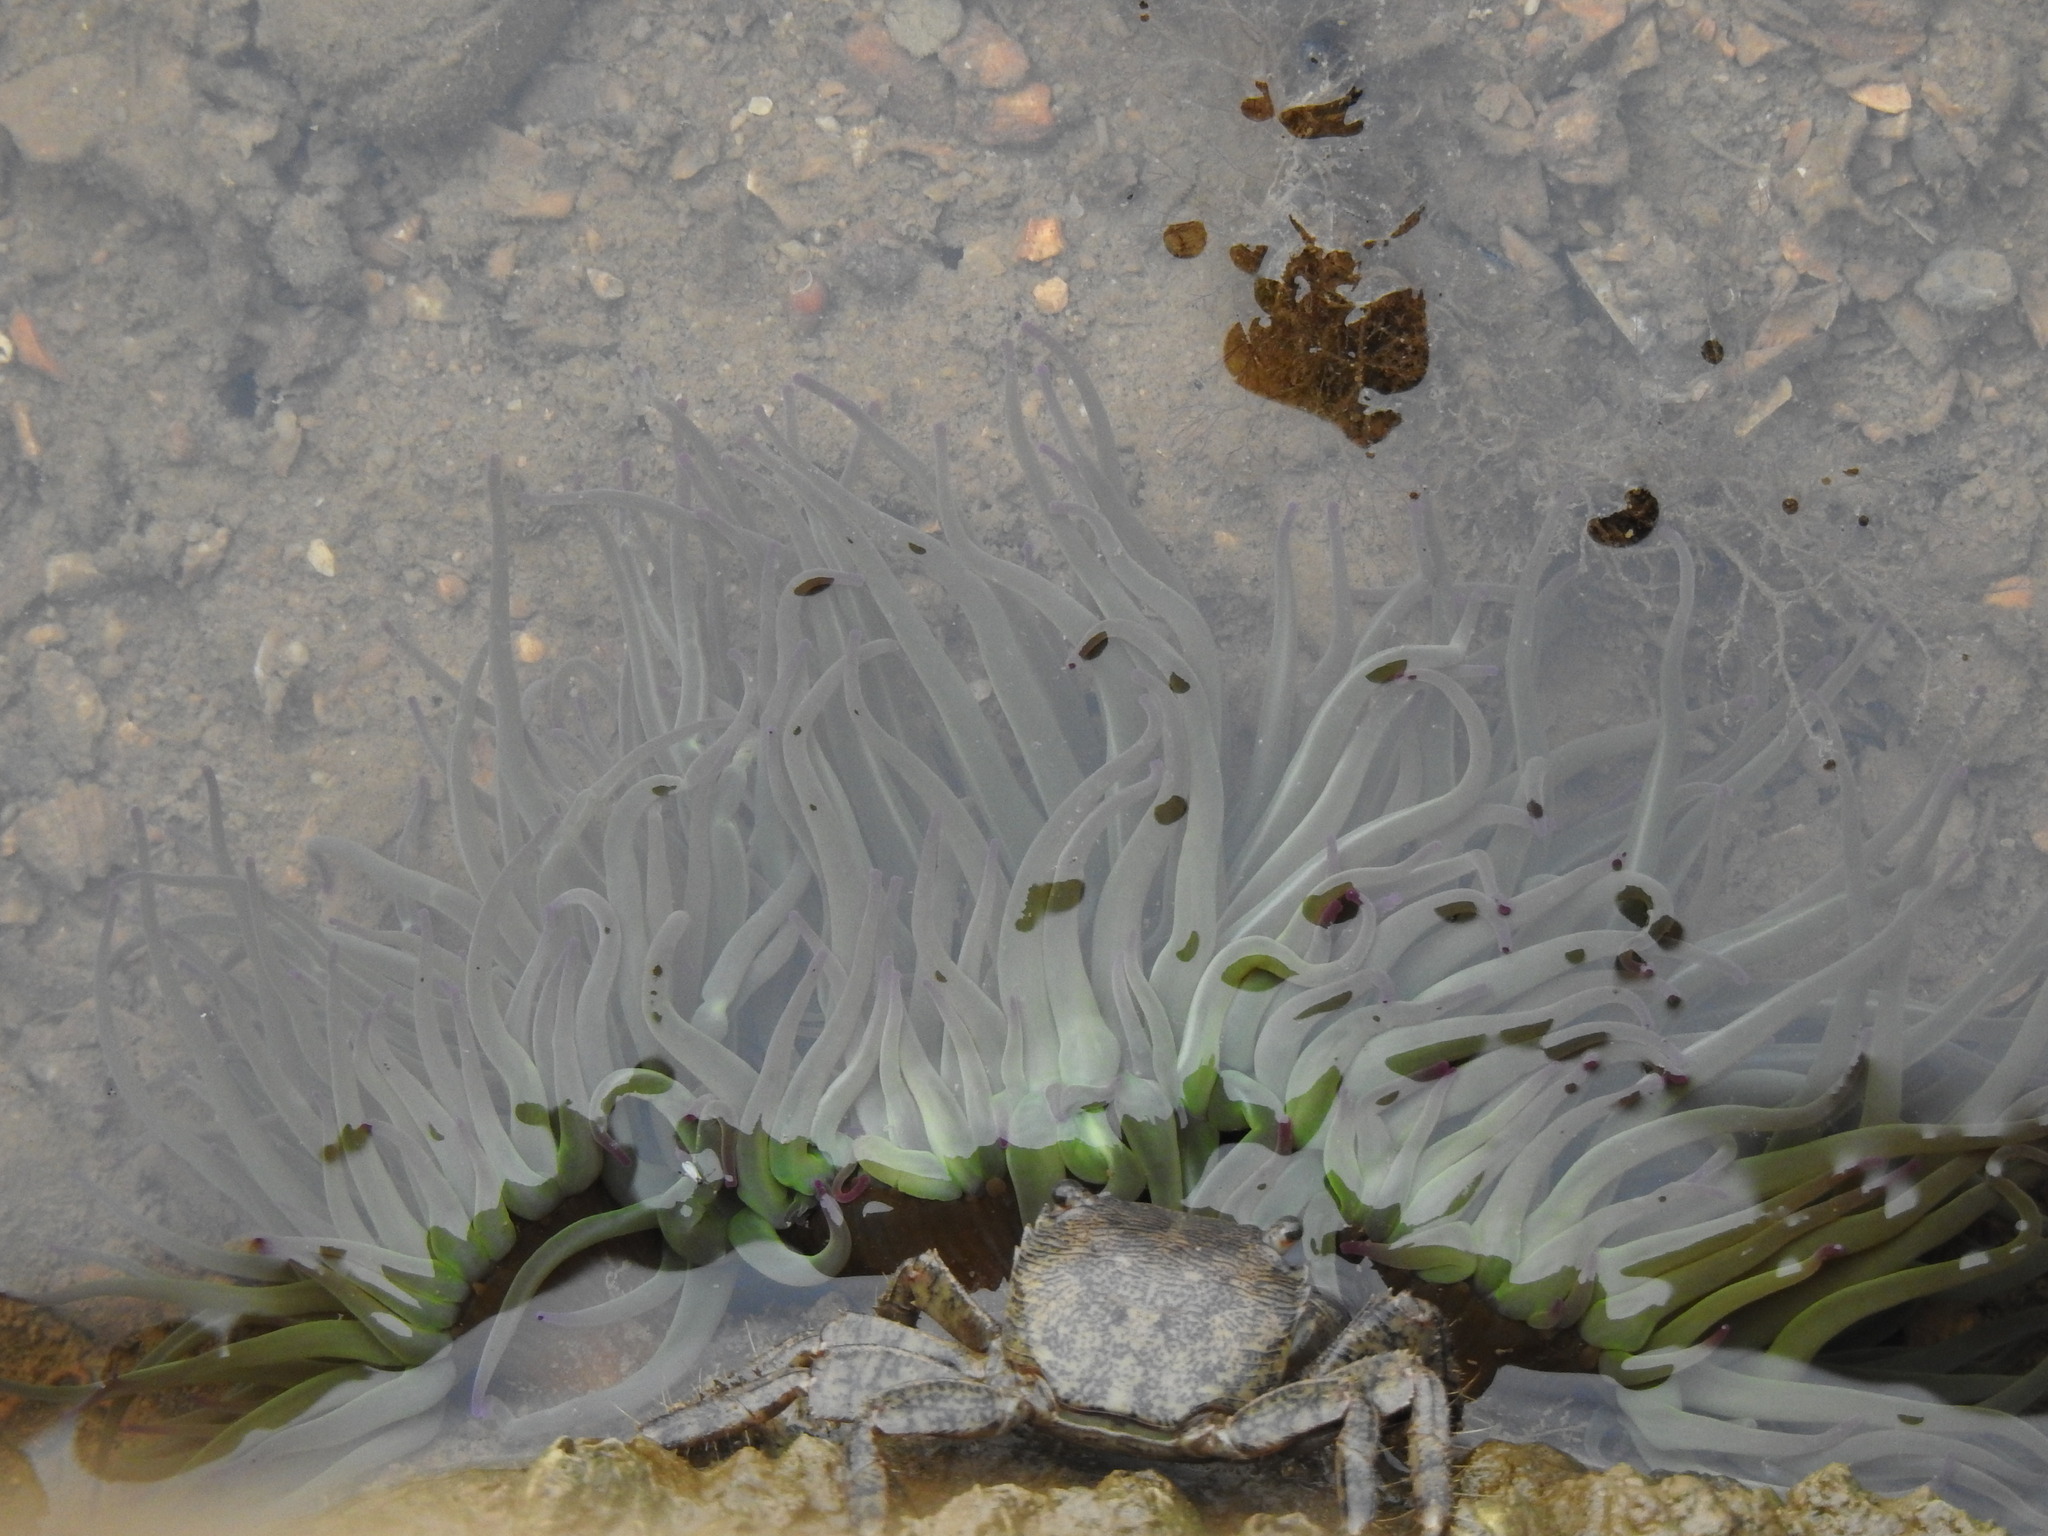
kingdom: Animalia
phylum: Cnidaria
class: Anthozoa
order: Actiniaria
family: Actiniidae
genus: Anemonia
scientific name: Anemonia viridis
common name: Snakelocks anemone
